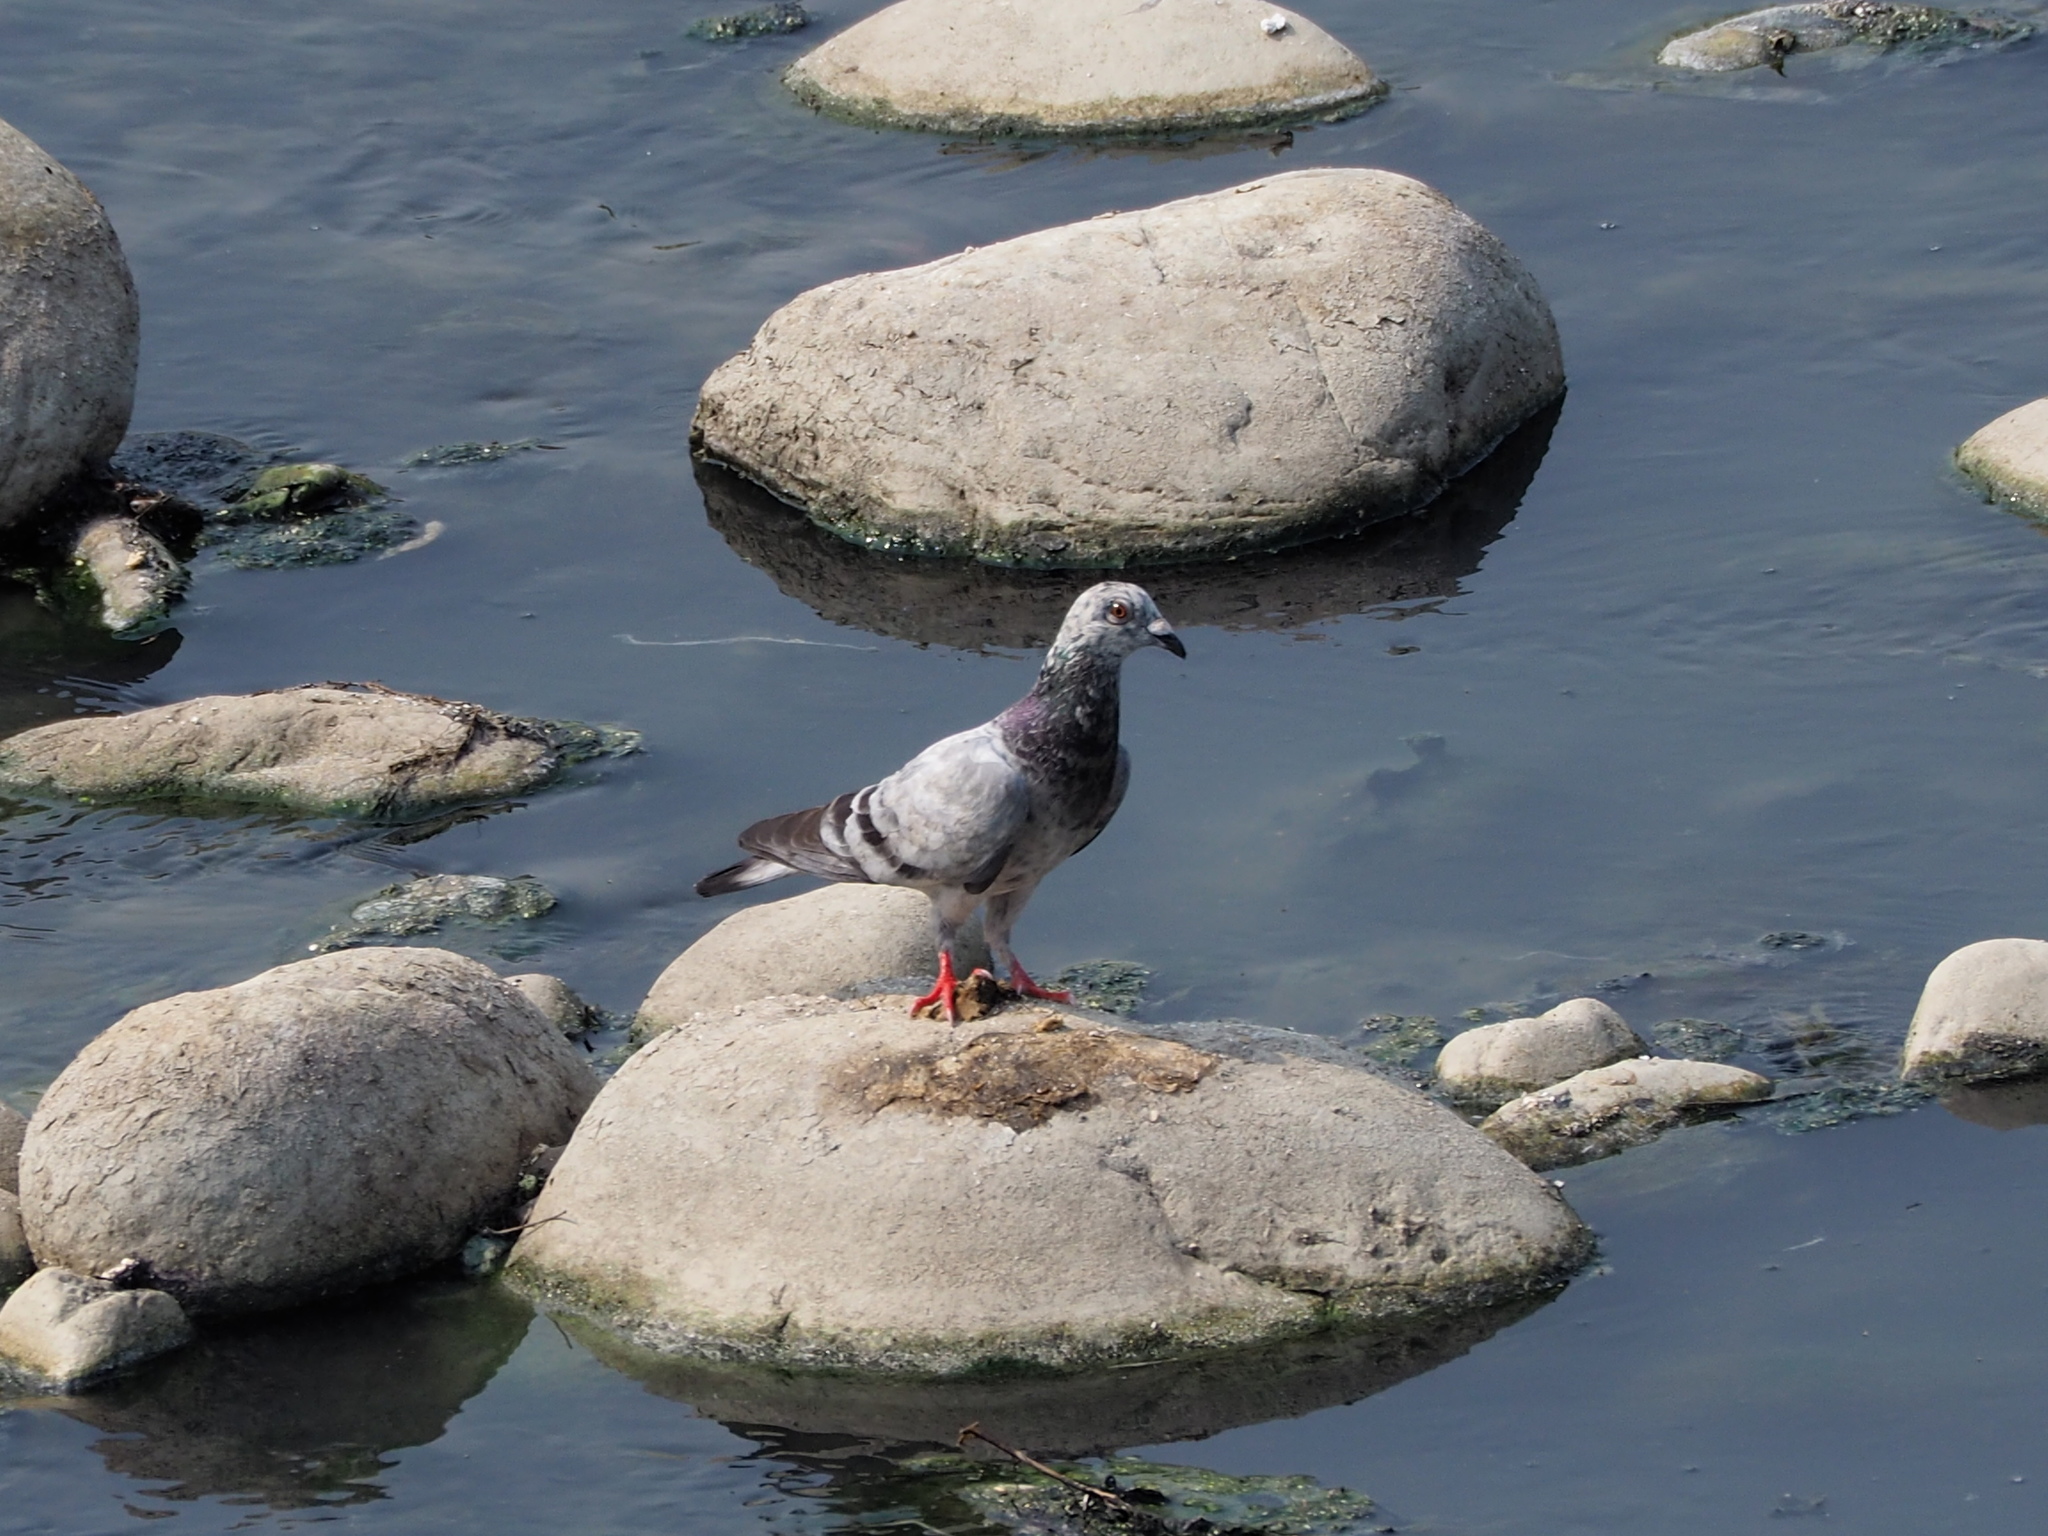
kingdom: Animalia
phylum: Chordata
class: Aves
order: Columbiformes
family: Columbidae
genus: Columba
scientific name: Columba livia
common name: Rock pigeon
